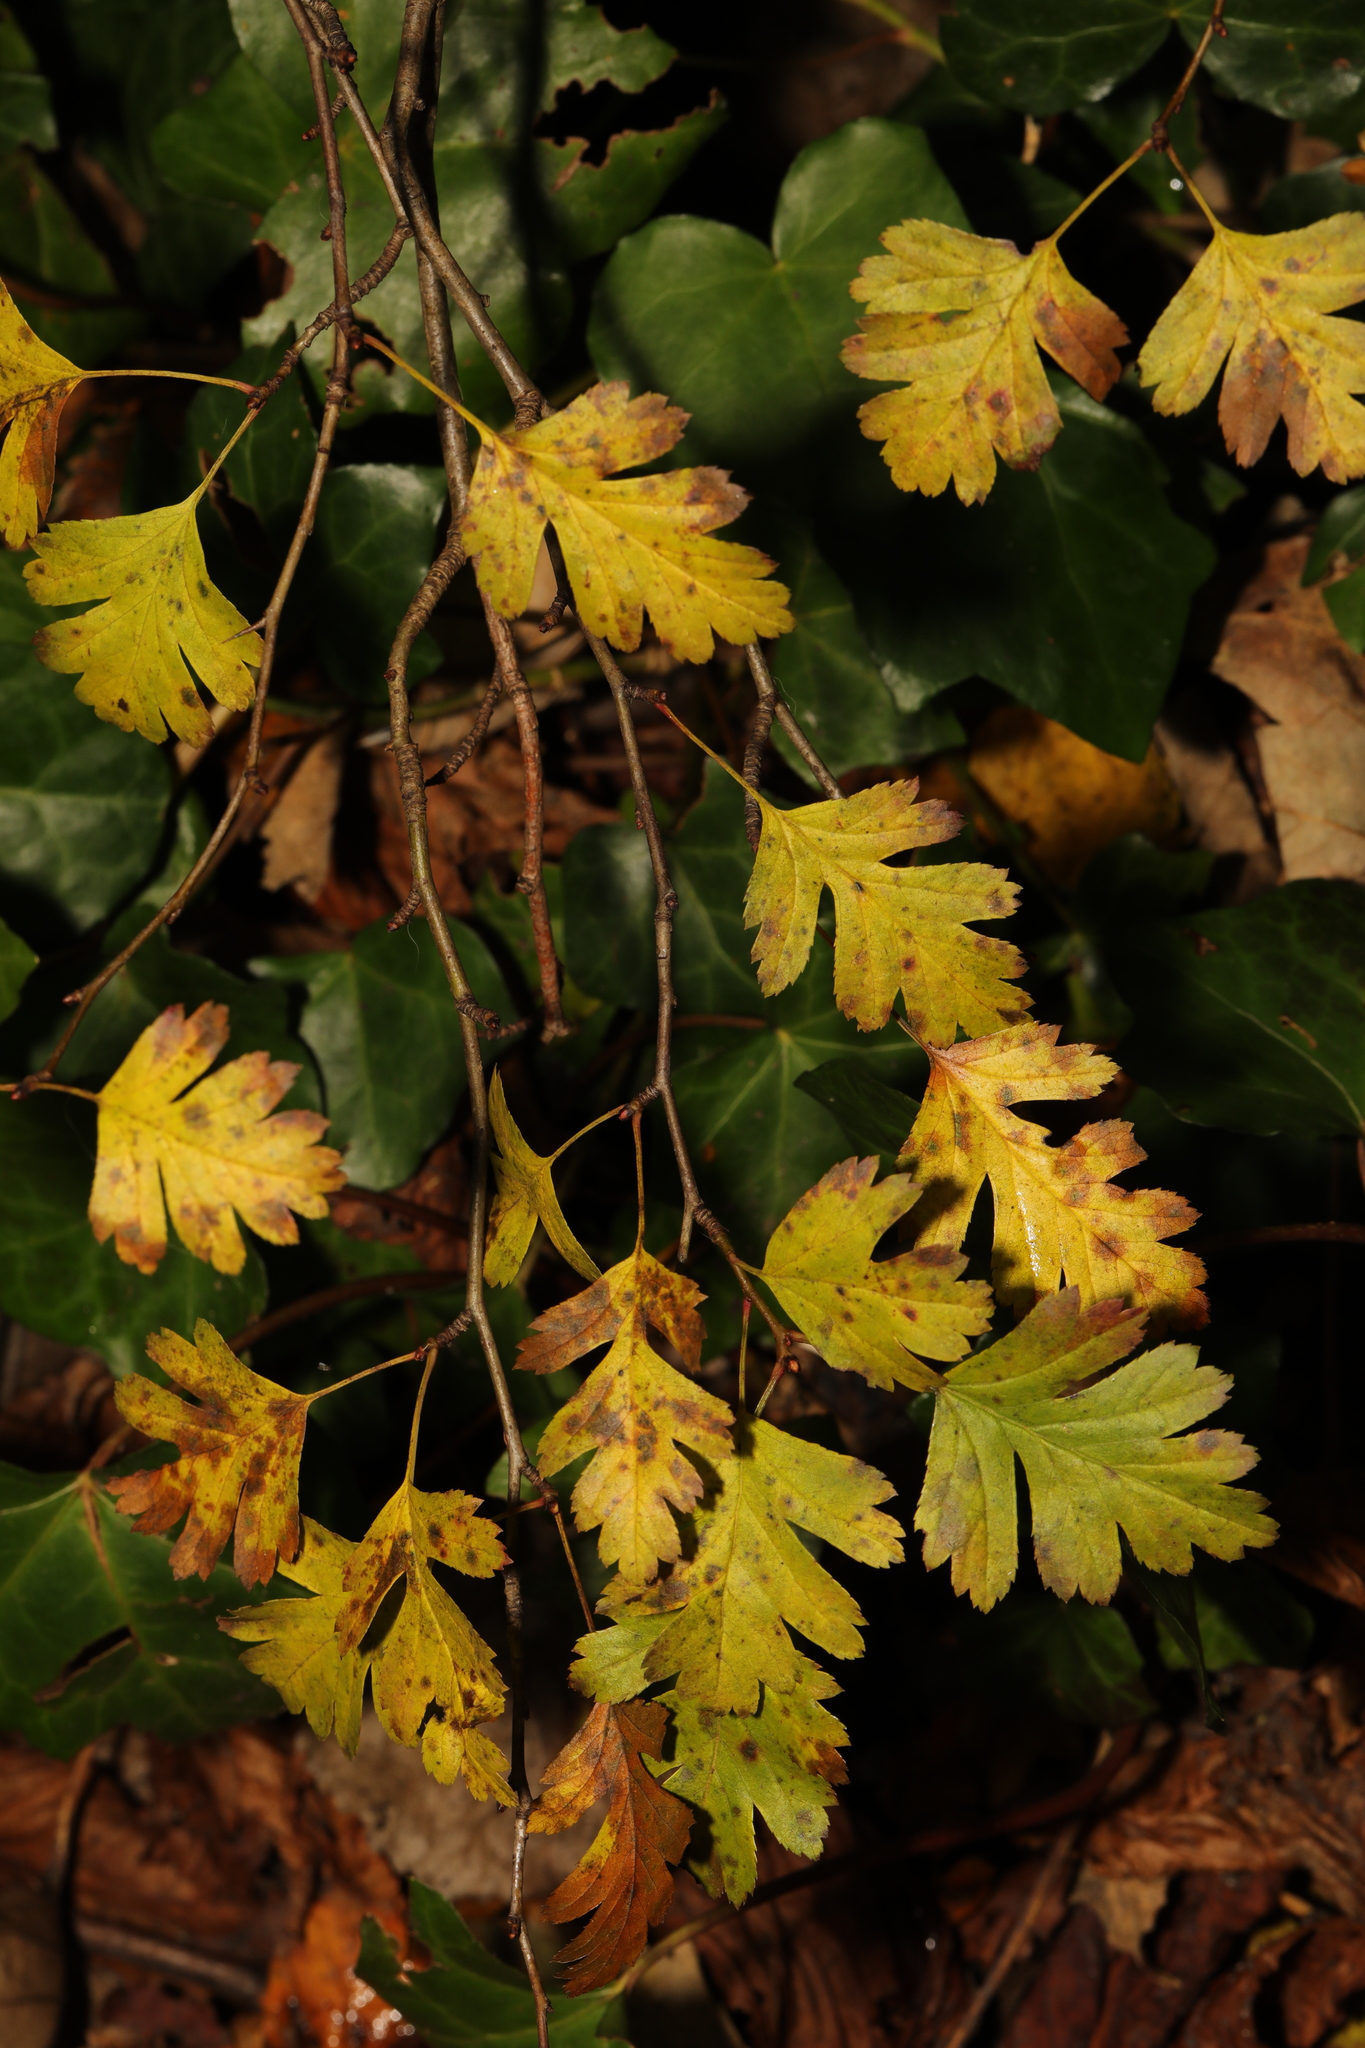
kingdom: Plantae
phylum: Tracheophyta
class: Magnoliopsida
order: Rosales
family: Rosaceae
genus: Crataegus
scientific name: Crataegus monogyna
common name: Hawthorn
